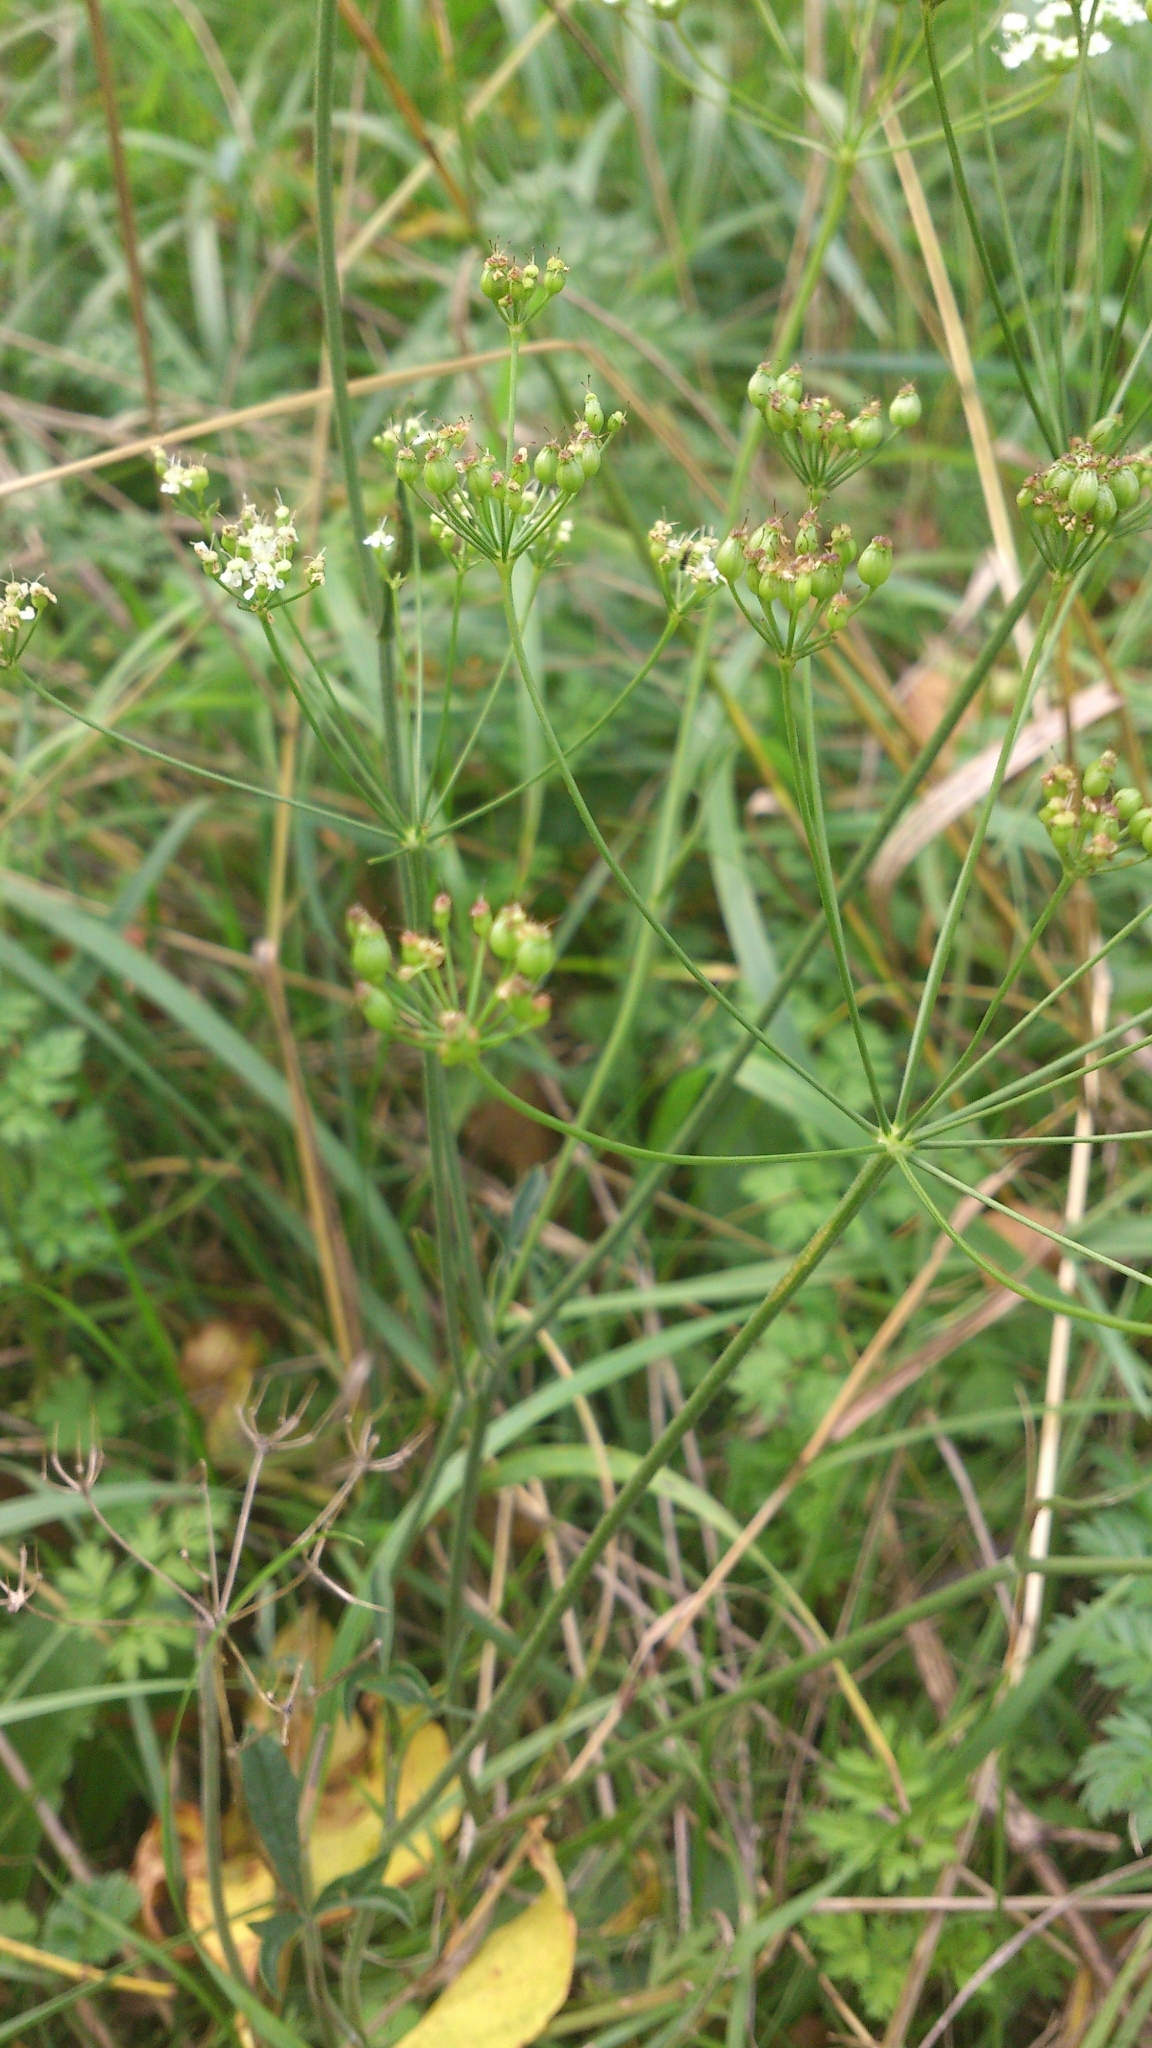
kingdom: Plantae
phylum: Tracheophyta
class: Magnoliopsida
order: Apiales
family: Apiaceae
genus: Pimpinella
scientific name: Pimpinella saxifraga
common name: Burnet-saxifrage
